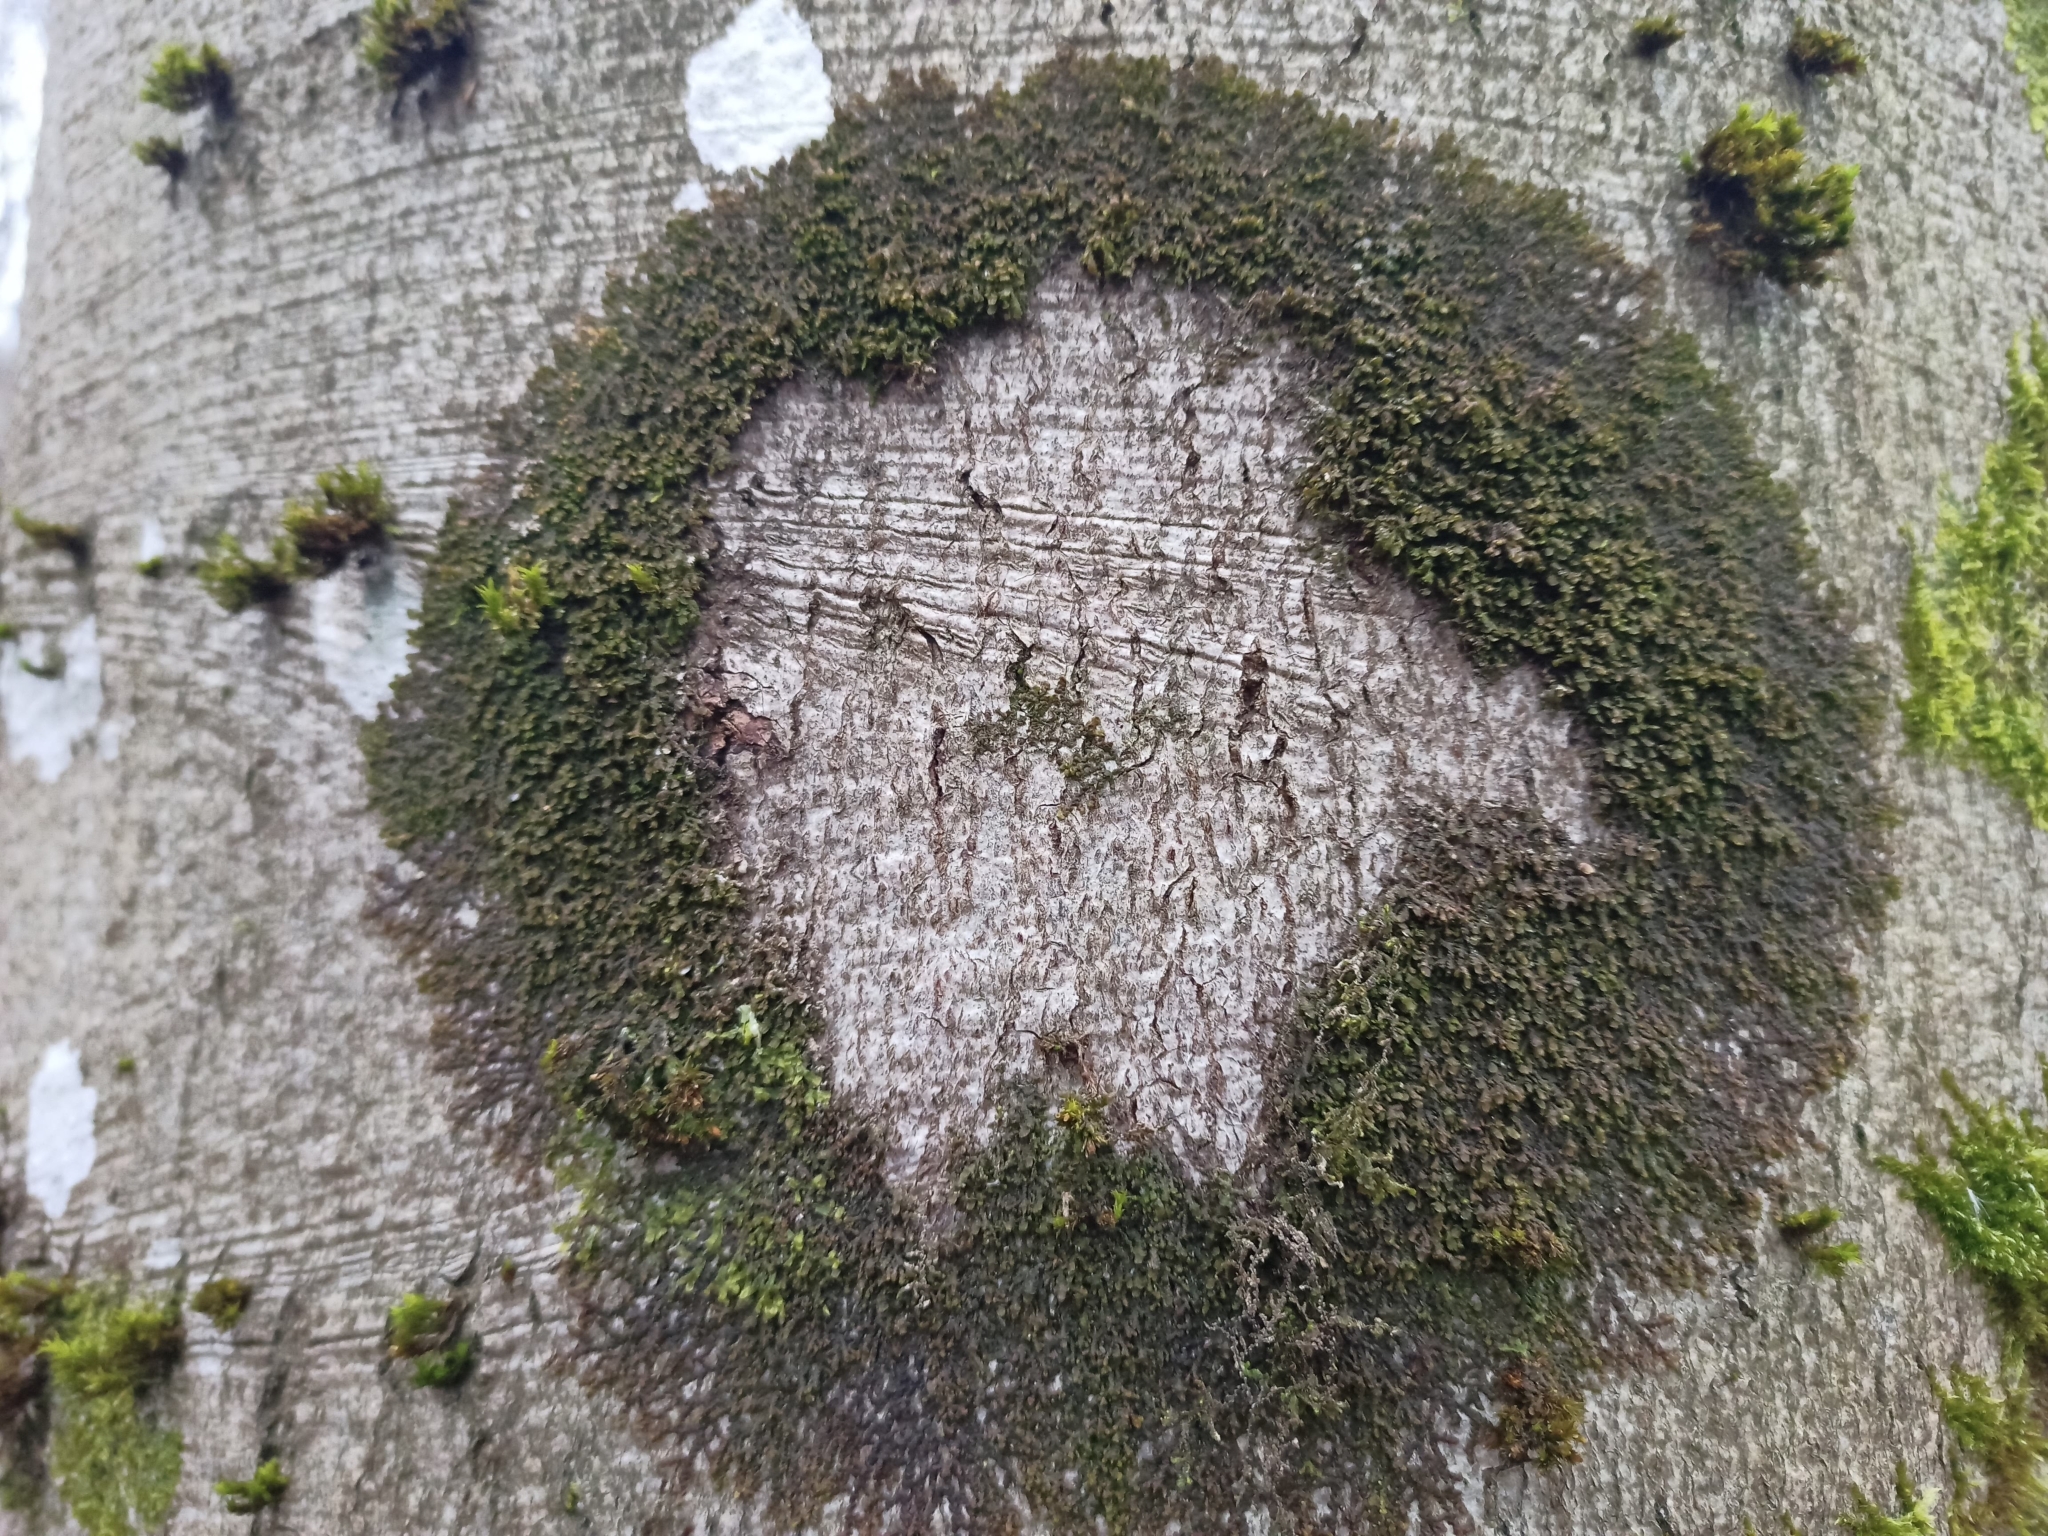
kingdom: Plantae
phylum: Marchantiophyta
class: Jungermanniopsida
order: Porellales
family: Frullaniaceae
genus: Frullania
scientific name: Frullania dilatata
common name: Dilated scalewort
